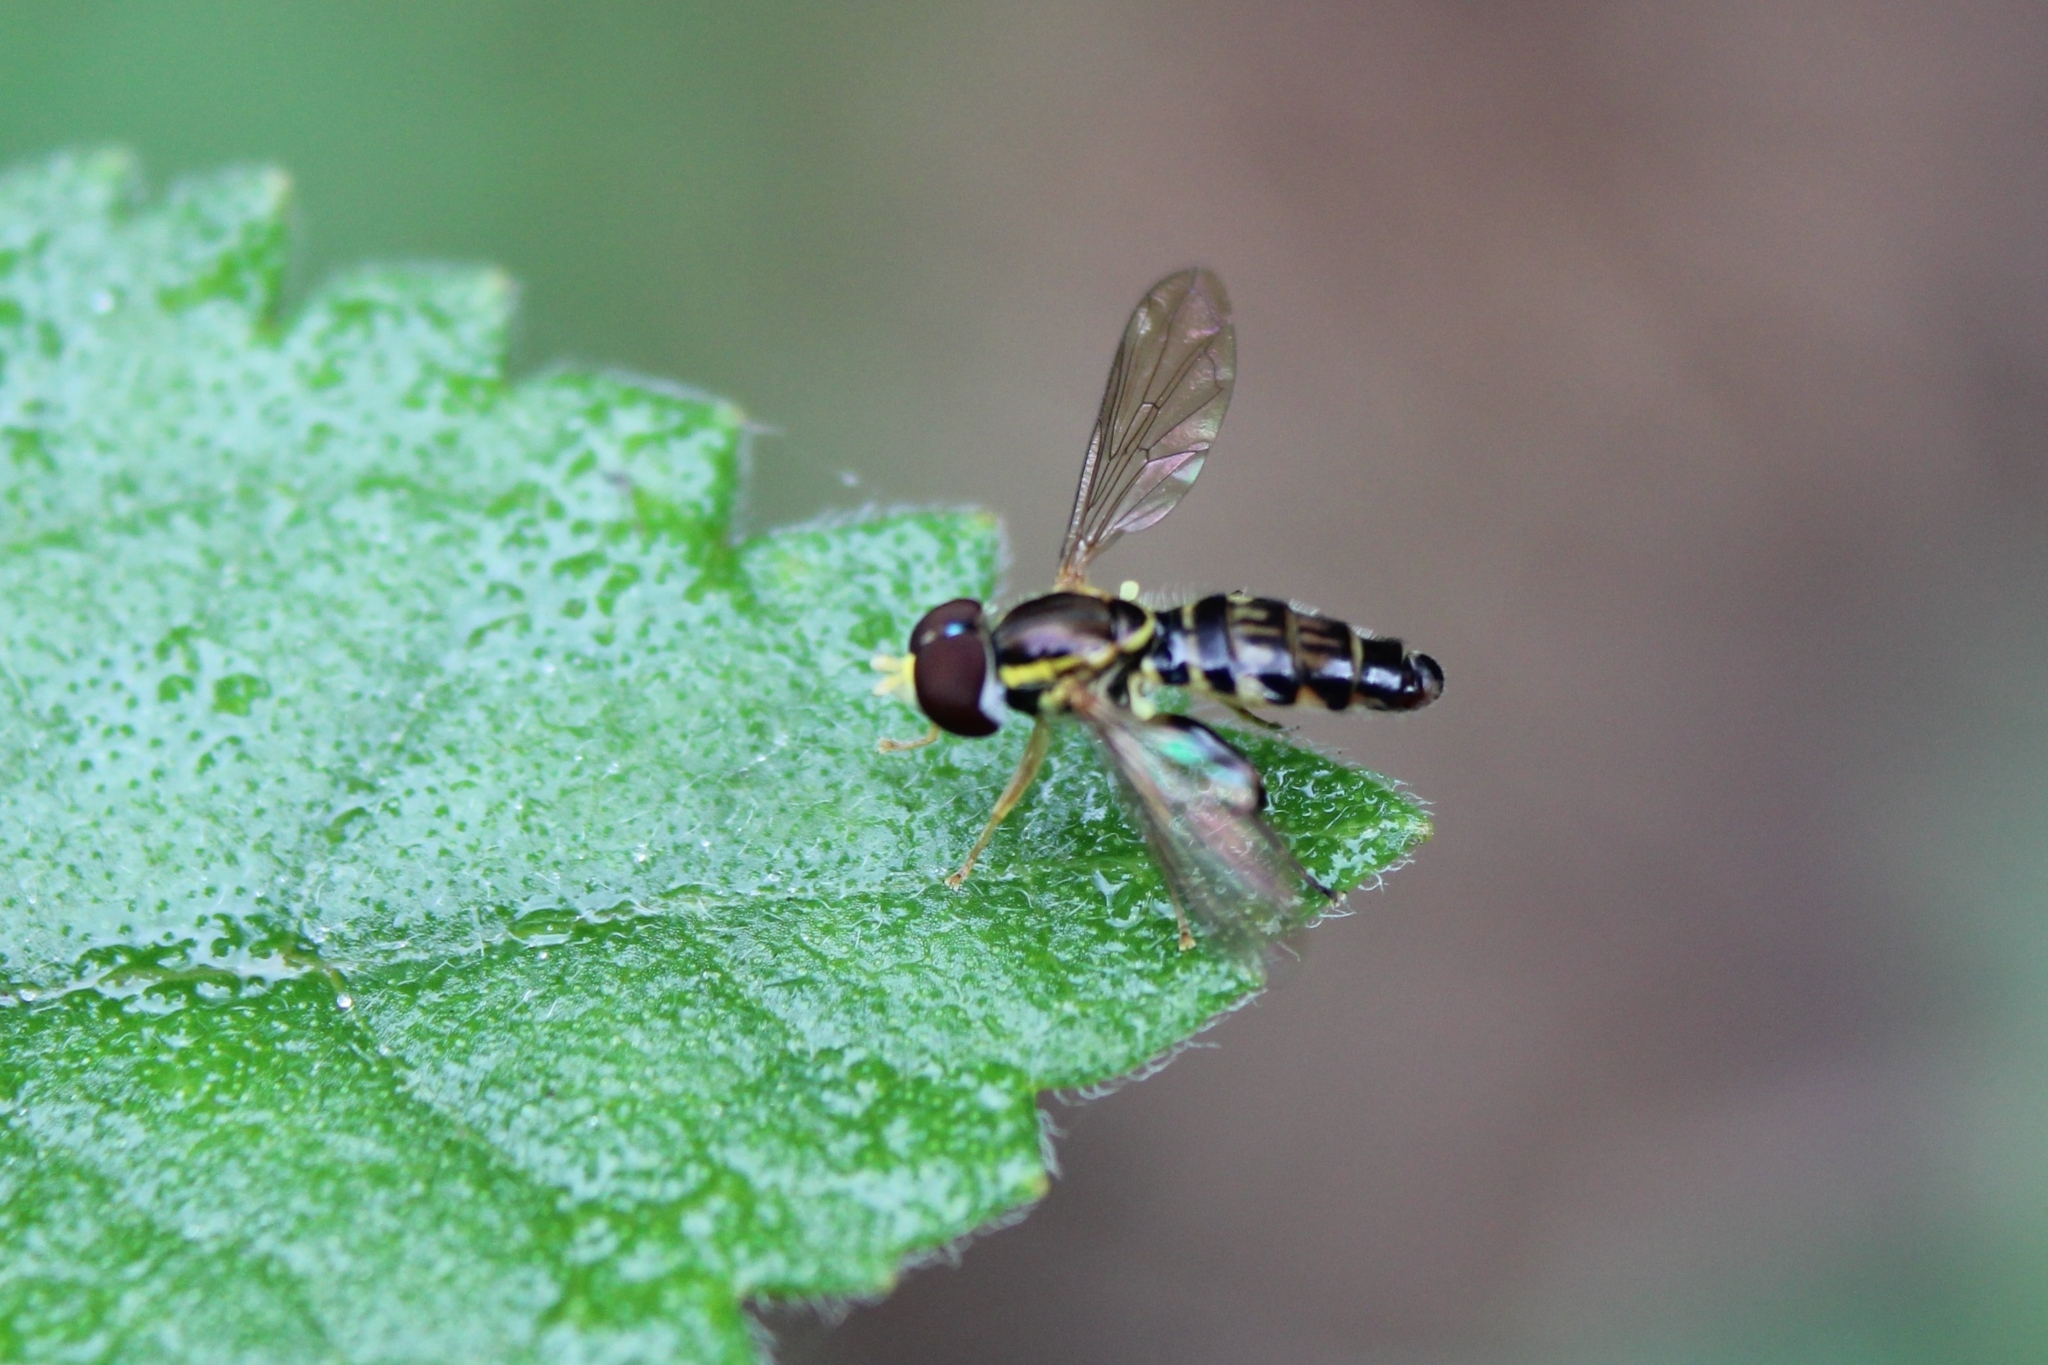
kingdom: Animalia
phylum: Arthropoda
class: Insecta
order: Diptera
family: Syrphidae
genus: Toxomerus
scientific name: Toxomerus geminatus
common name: Eastern calligrapher
